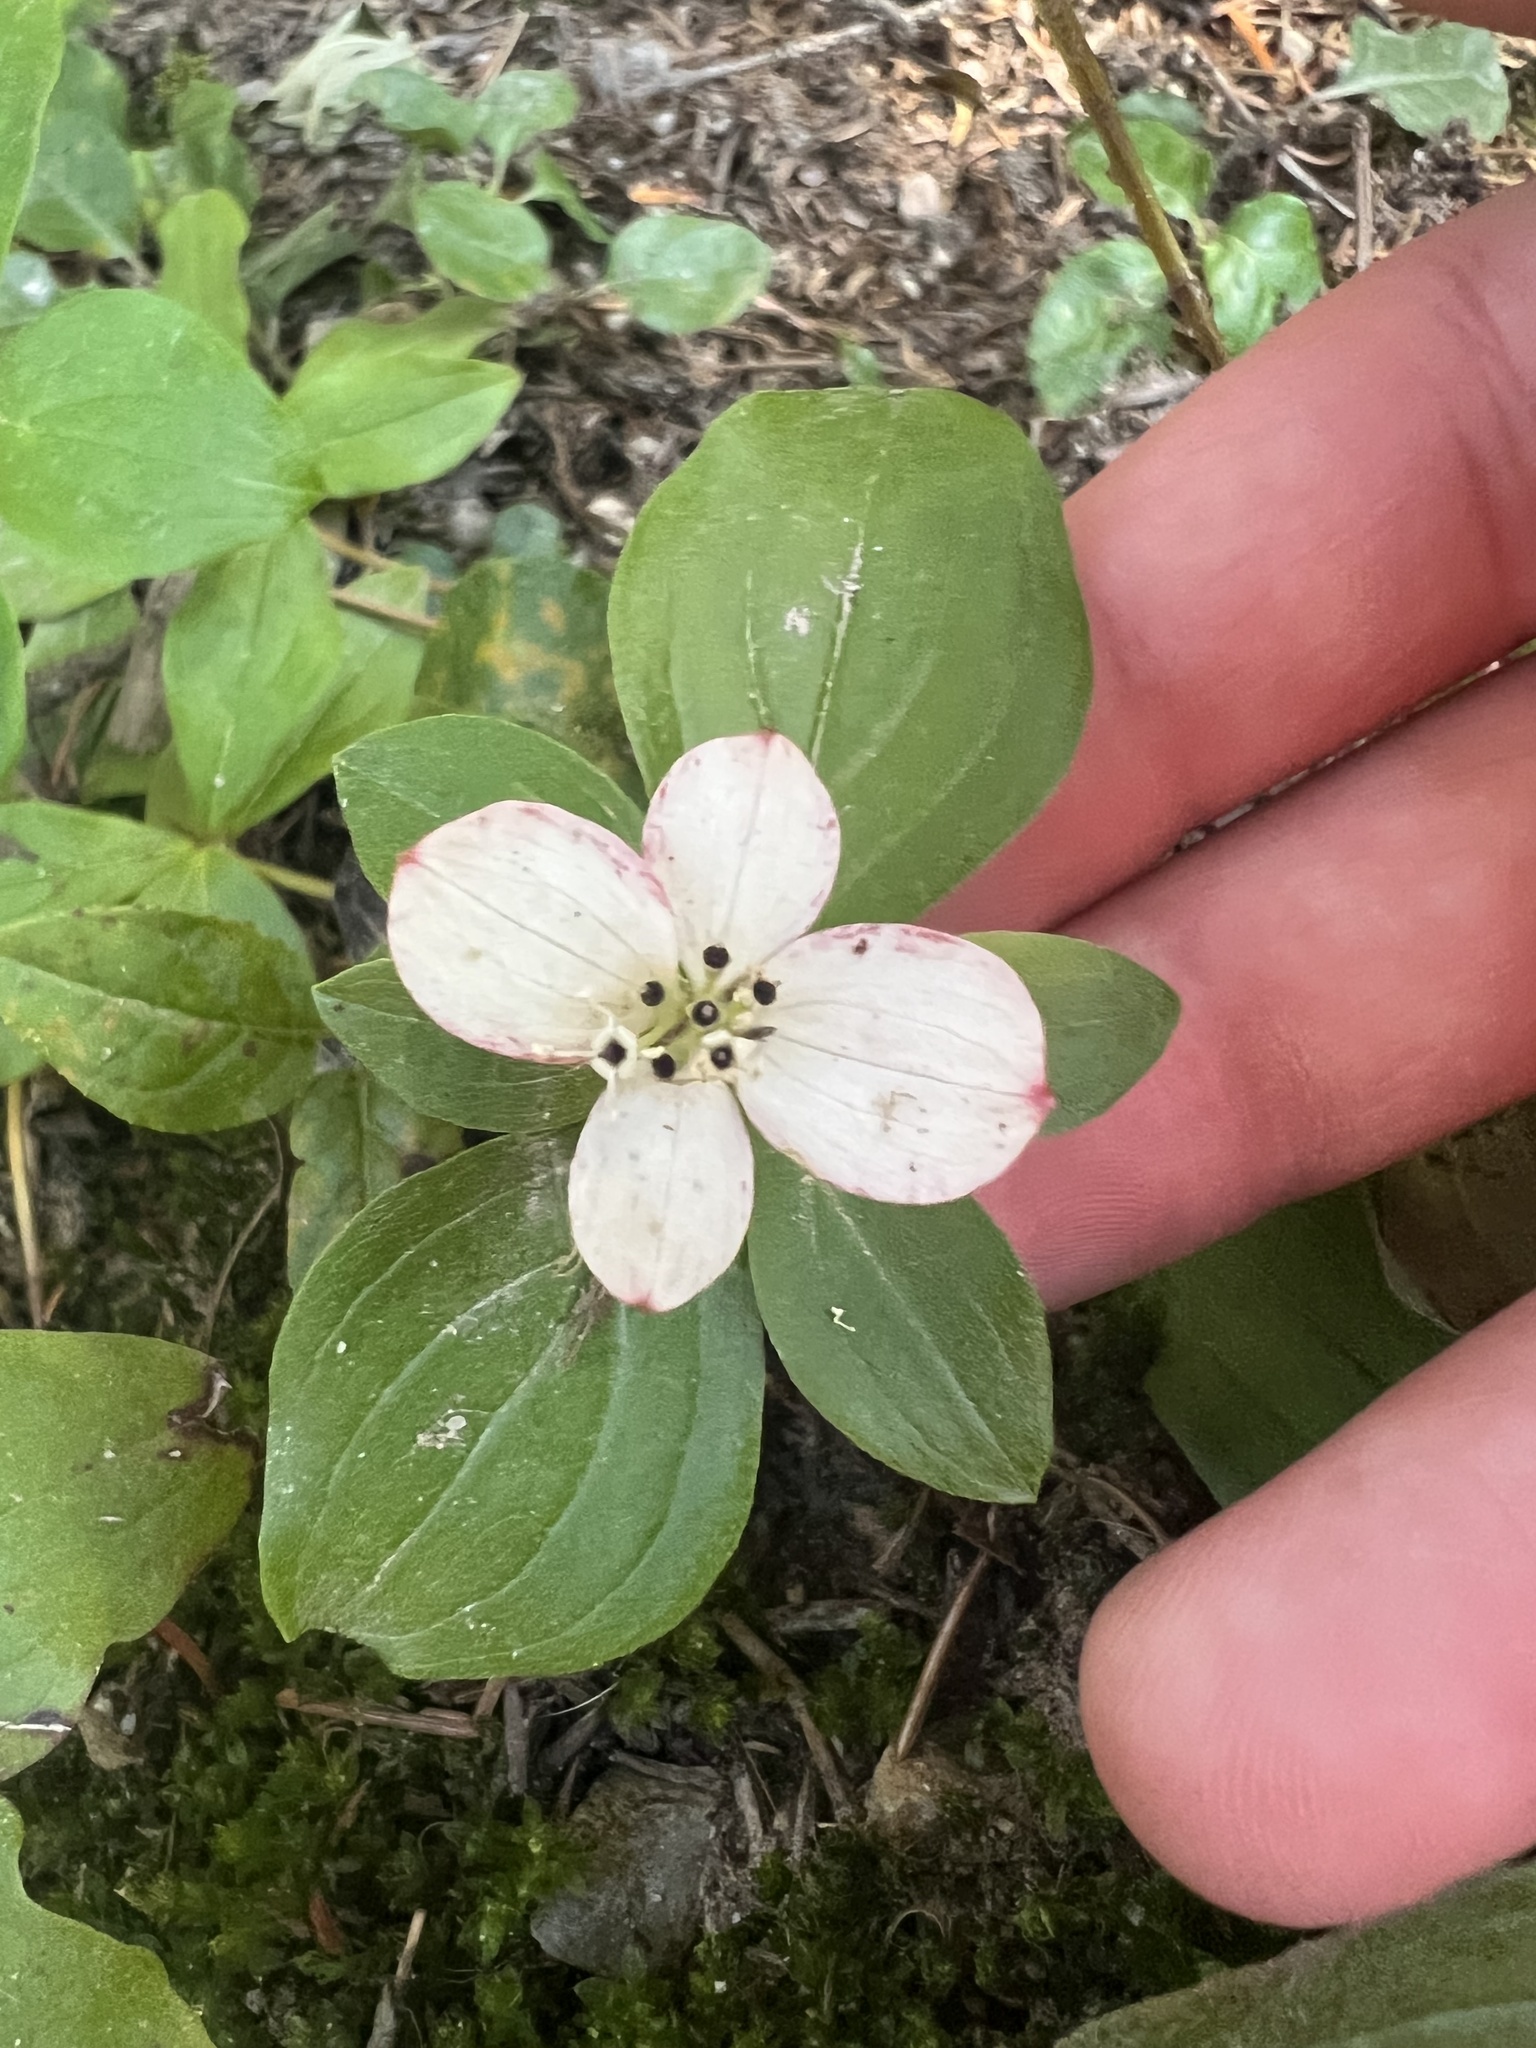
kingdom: Plantae
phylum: Tracheophyta
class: Magnoliopsida
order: Cornales
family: Cornaceae
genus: Cornus
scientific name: Cornus canadensis
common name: Creeping dogwood
